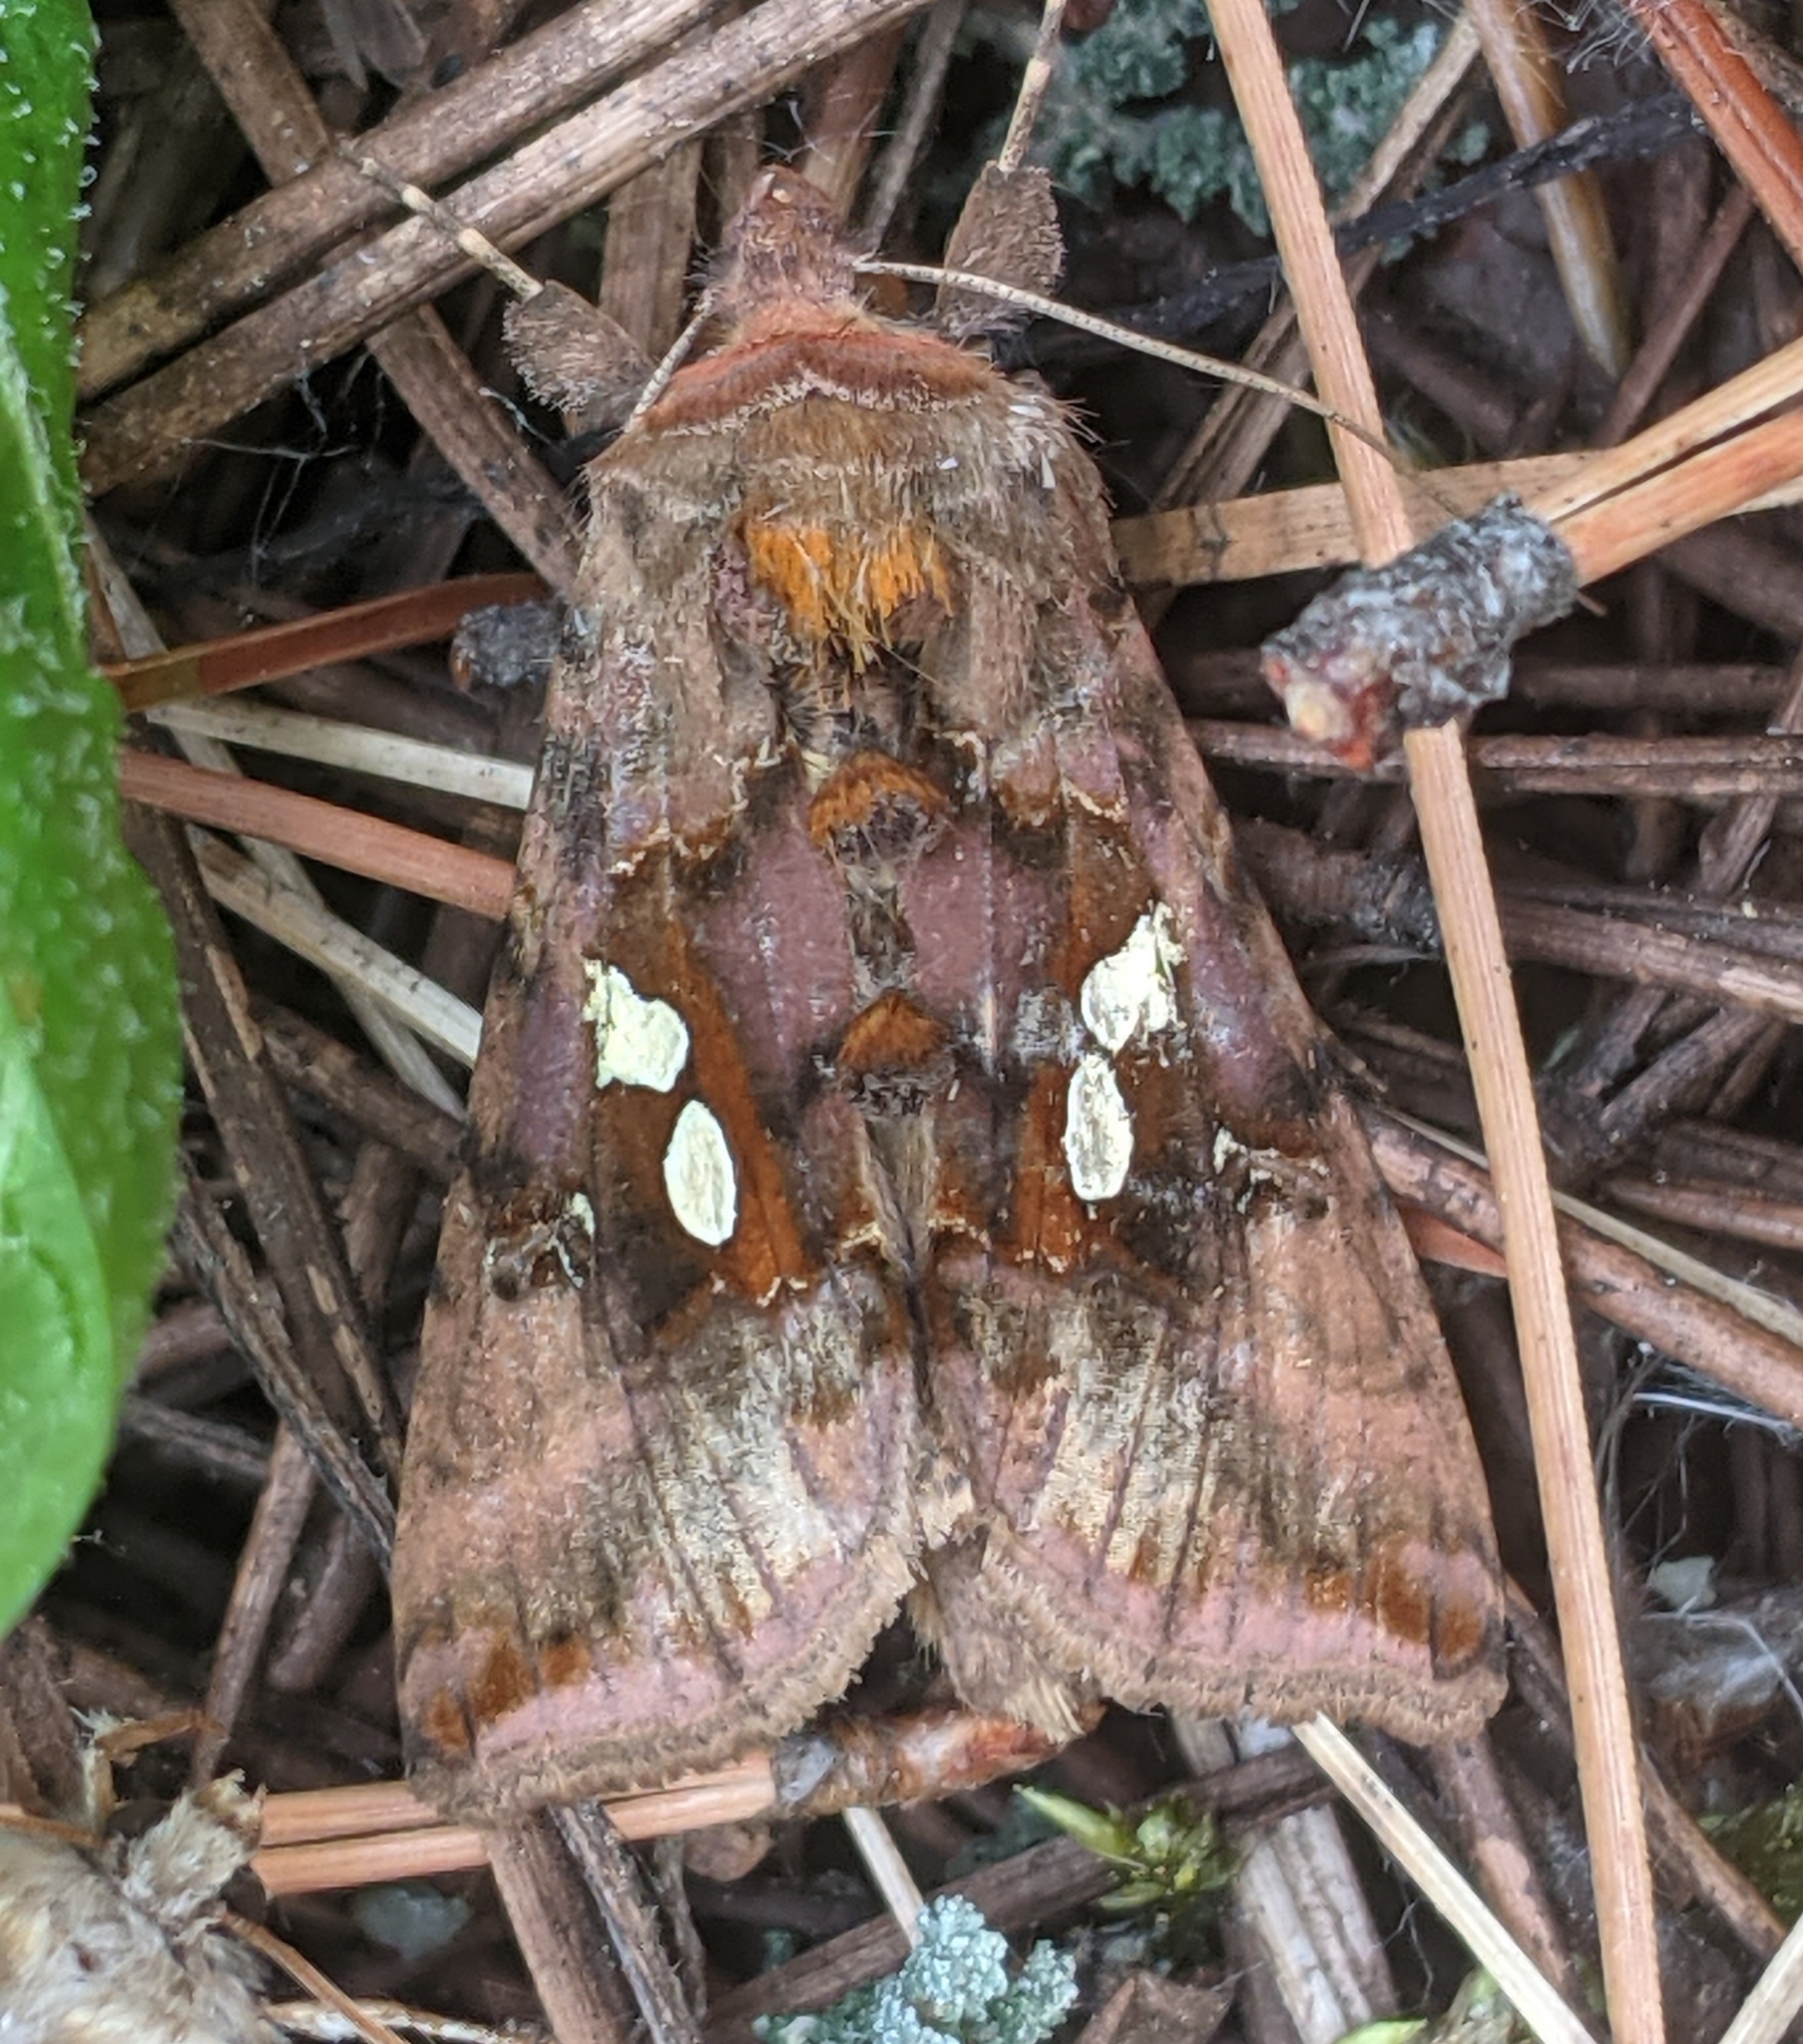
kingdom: Animalia
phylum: Arthropoda
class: Insecta
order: Lepidoptera
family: Noctuidae
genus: Autographa
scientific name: Autographa bimaculata
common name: Double-spotted spangle
